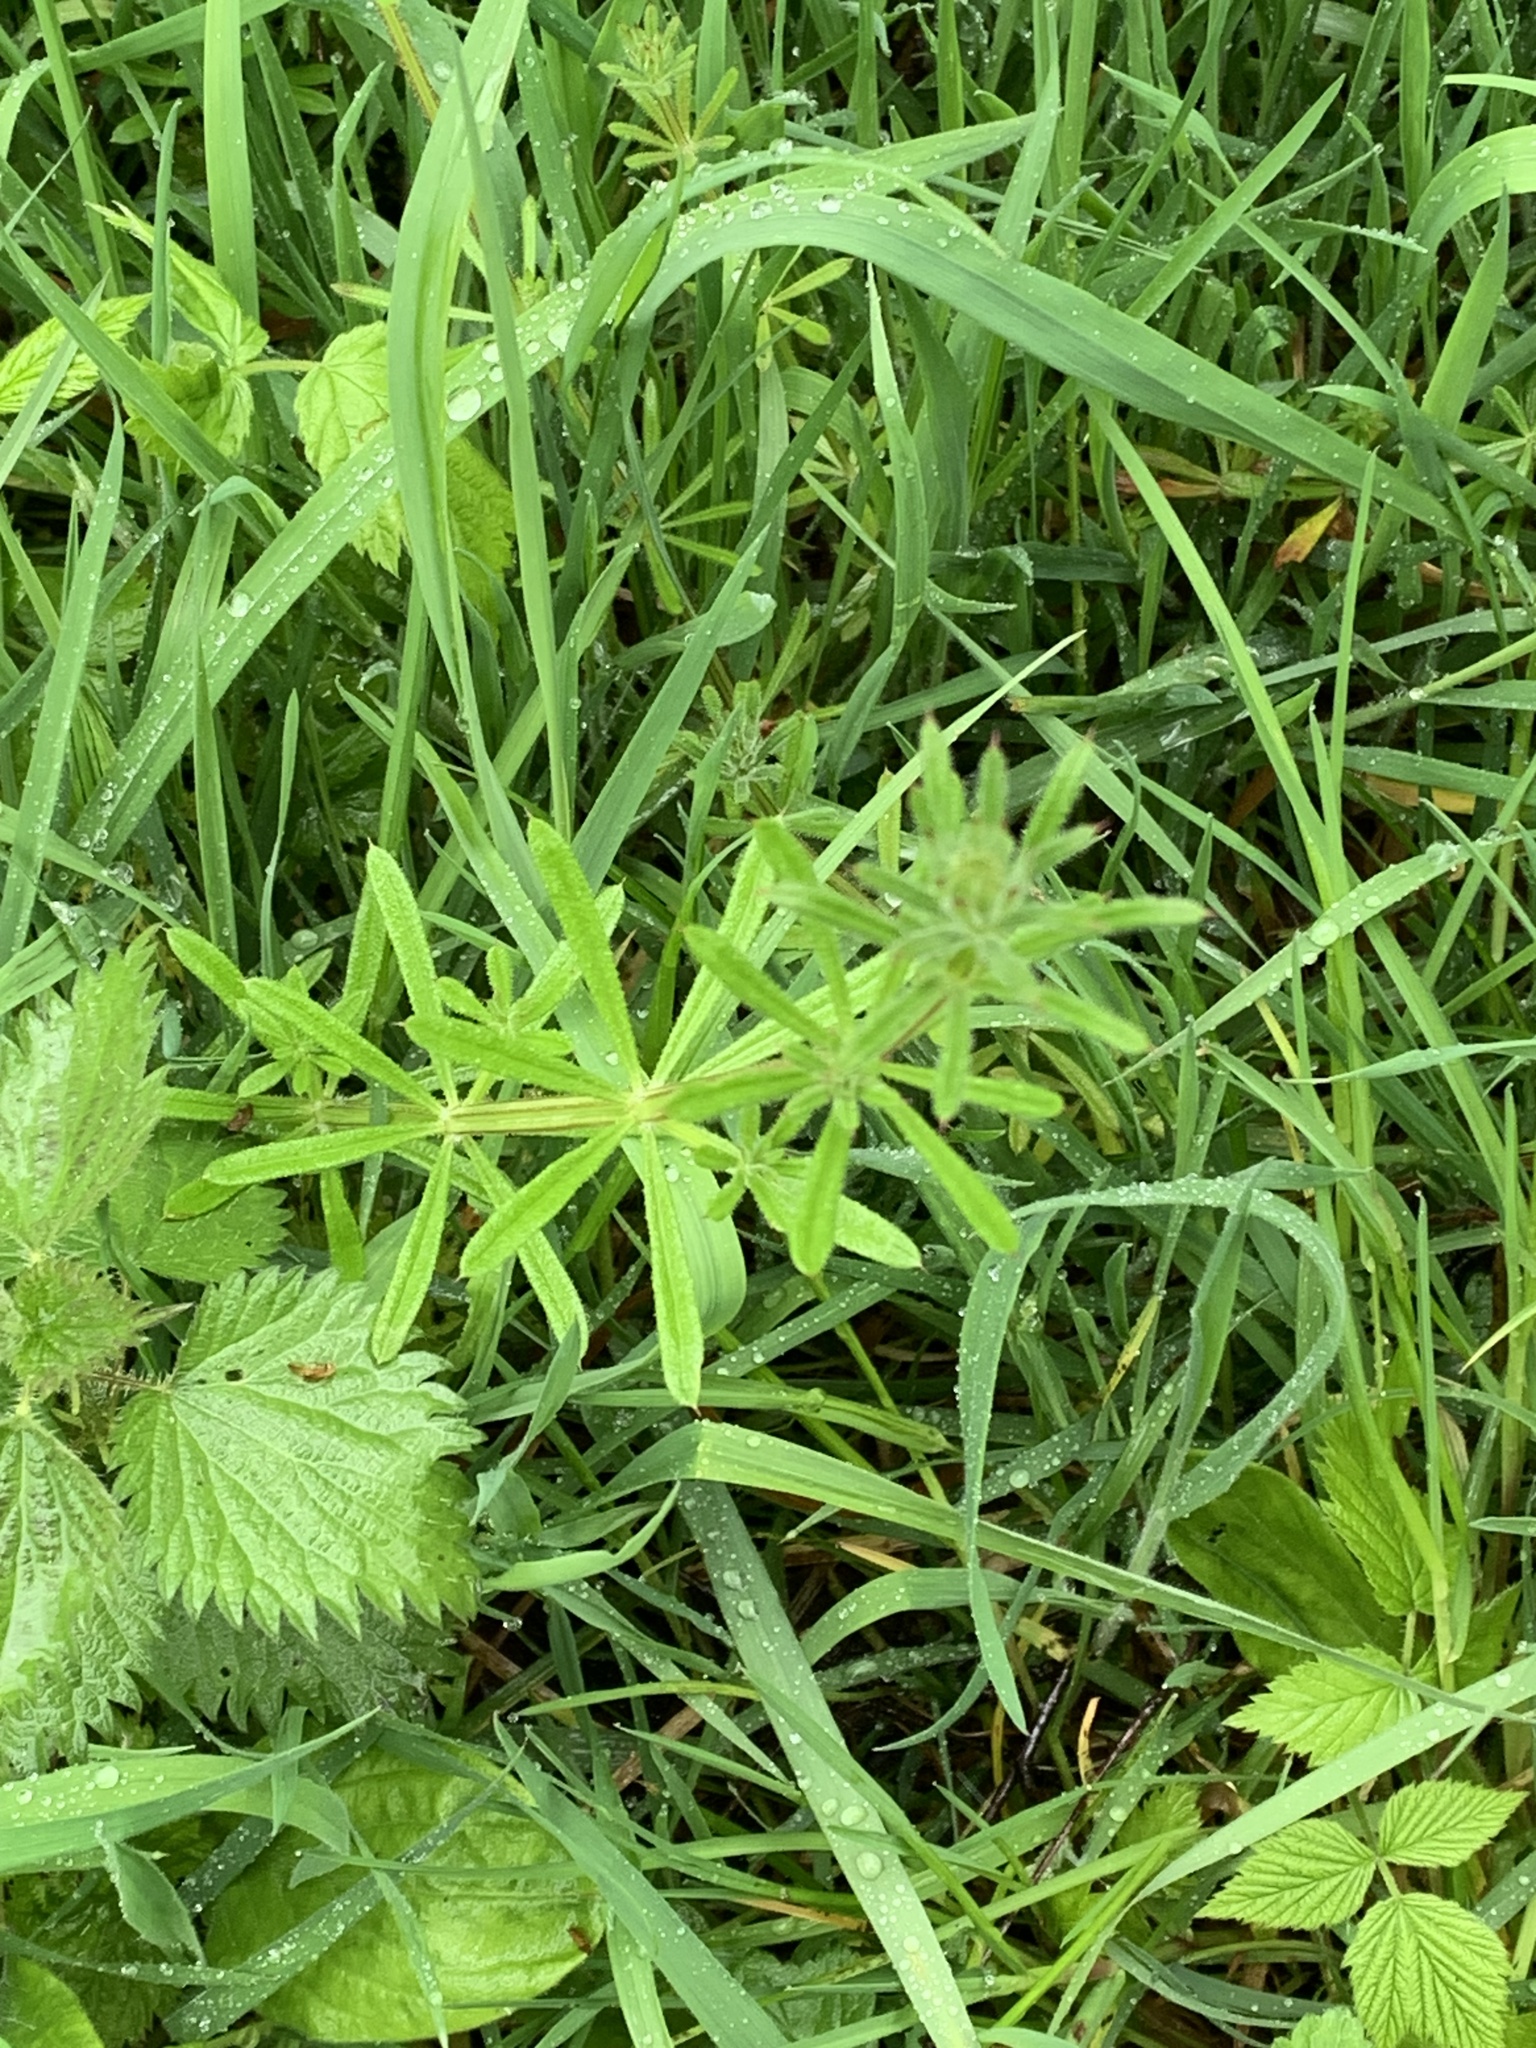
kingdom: Plantae
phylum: Tracheophyta
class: Magnoliopsida
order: Gentianales
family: Rubiaceae
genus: Galium
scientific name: Galium aparine
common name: Cleavers
